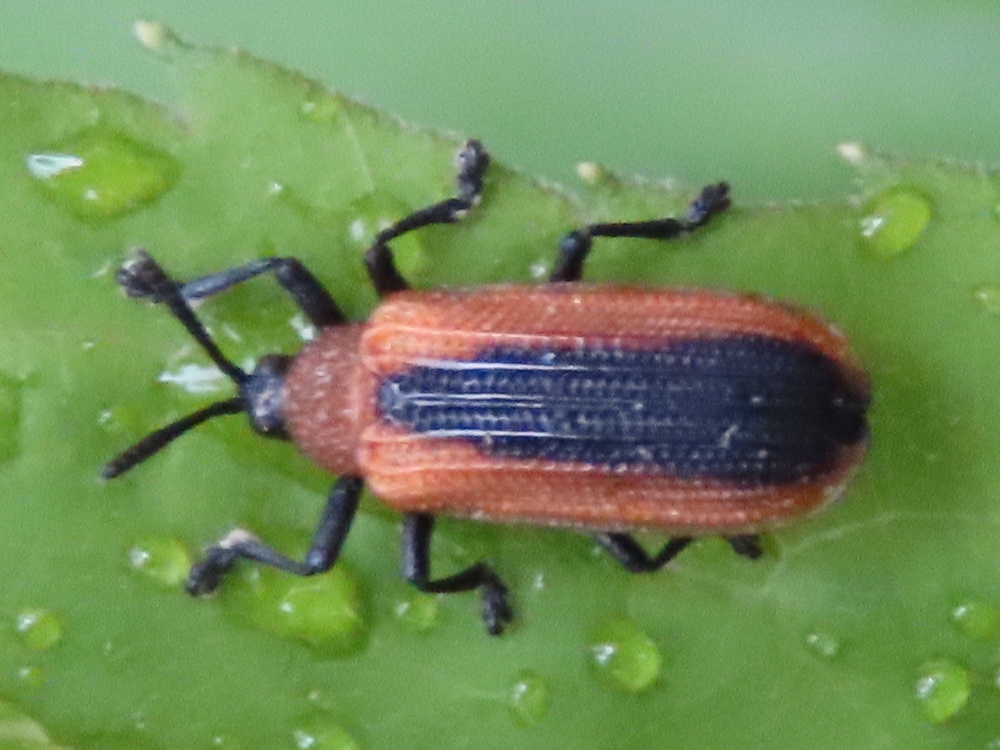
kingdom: Animalia
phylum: Arthropoda
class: Insecta
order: Coleoptera
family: Chrysomelidae
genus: Odontota
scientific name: Odontota dorsalis
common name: Locust leaf-miner beetle
